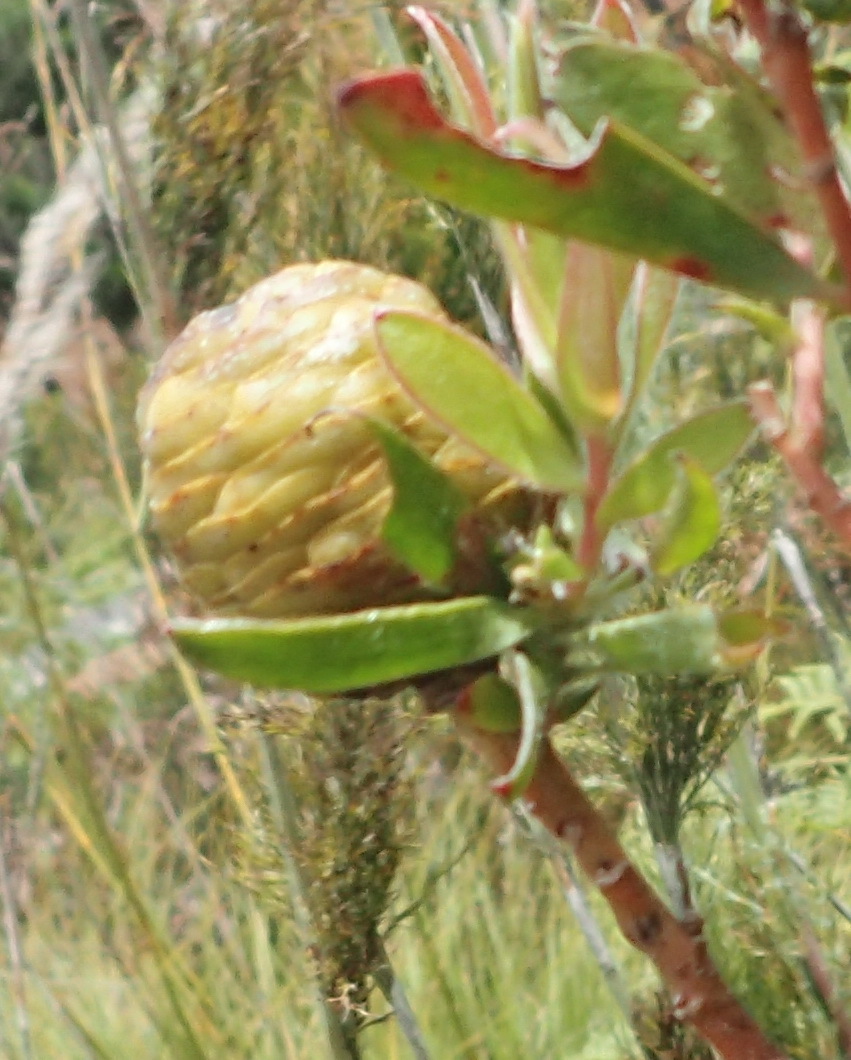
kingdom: Plantae
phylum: Tracheophyta
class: Magnoliopsida
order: Proteales
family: Proteaceae
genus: Leucadendron
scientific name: Leucadendron conicum
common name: Garden route conebush
